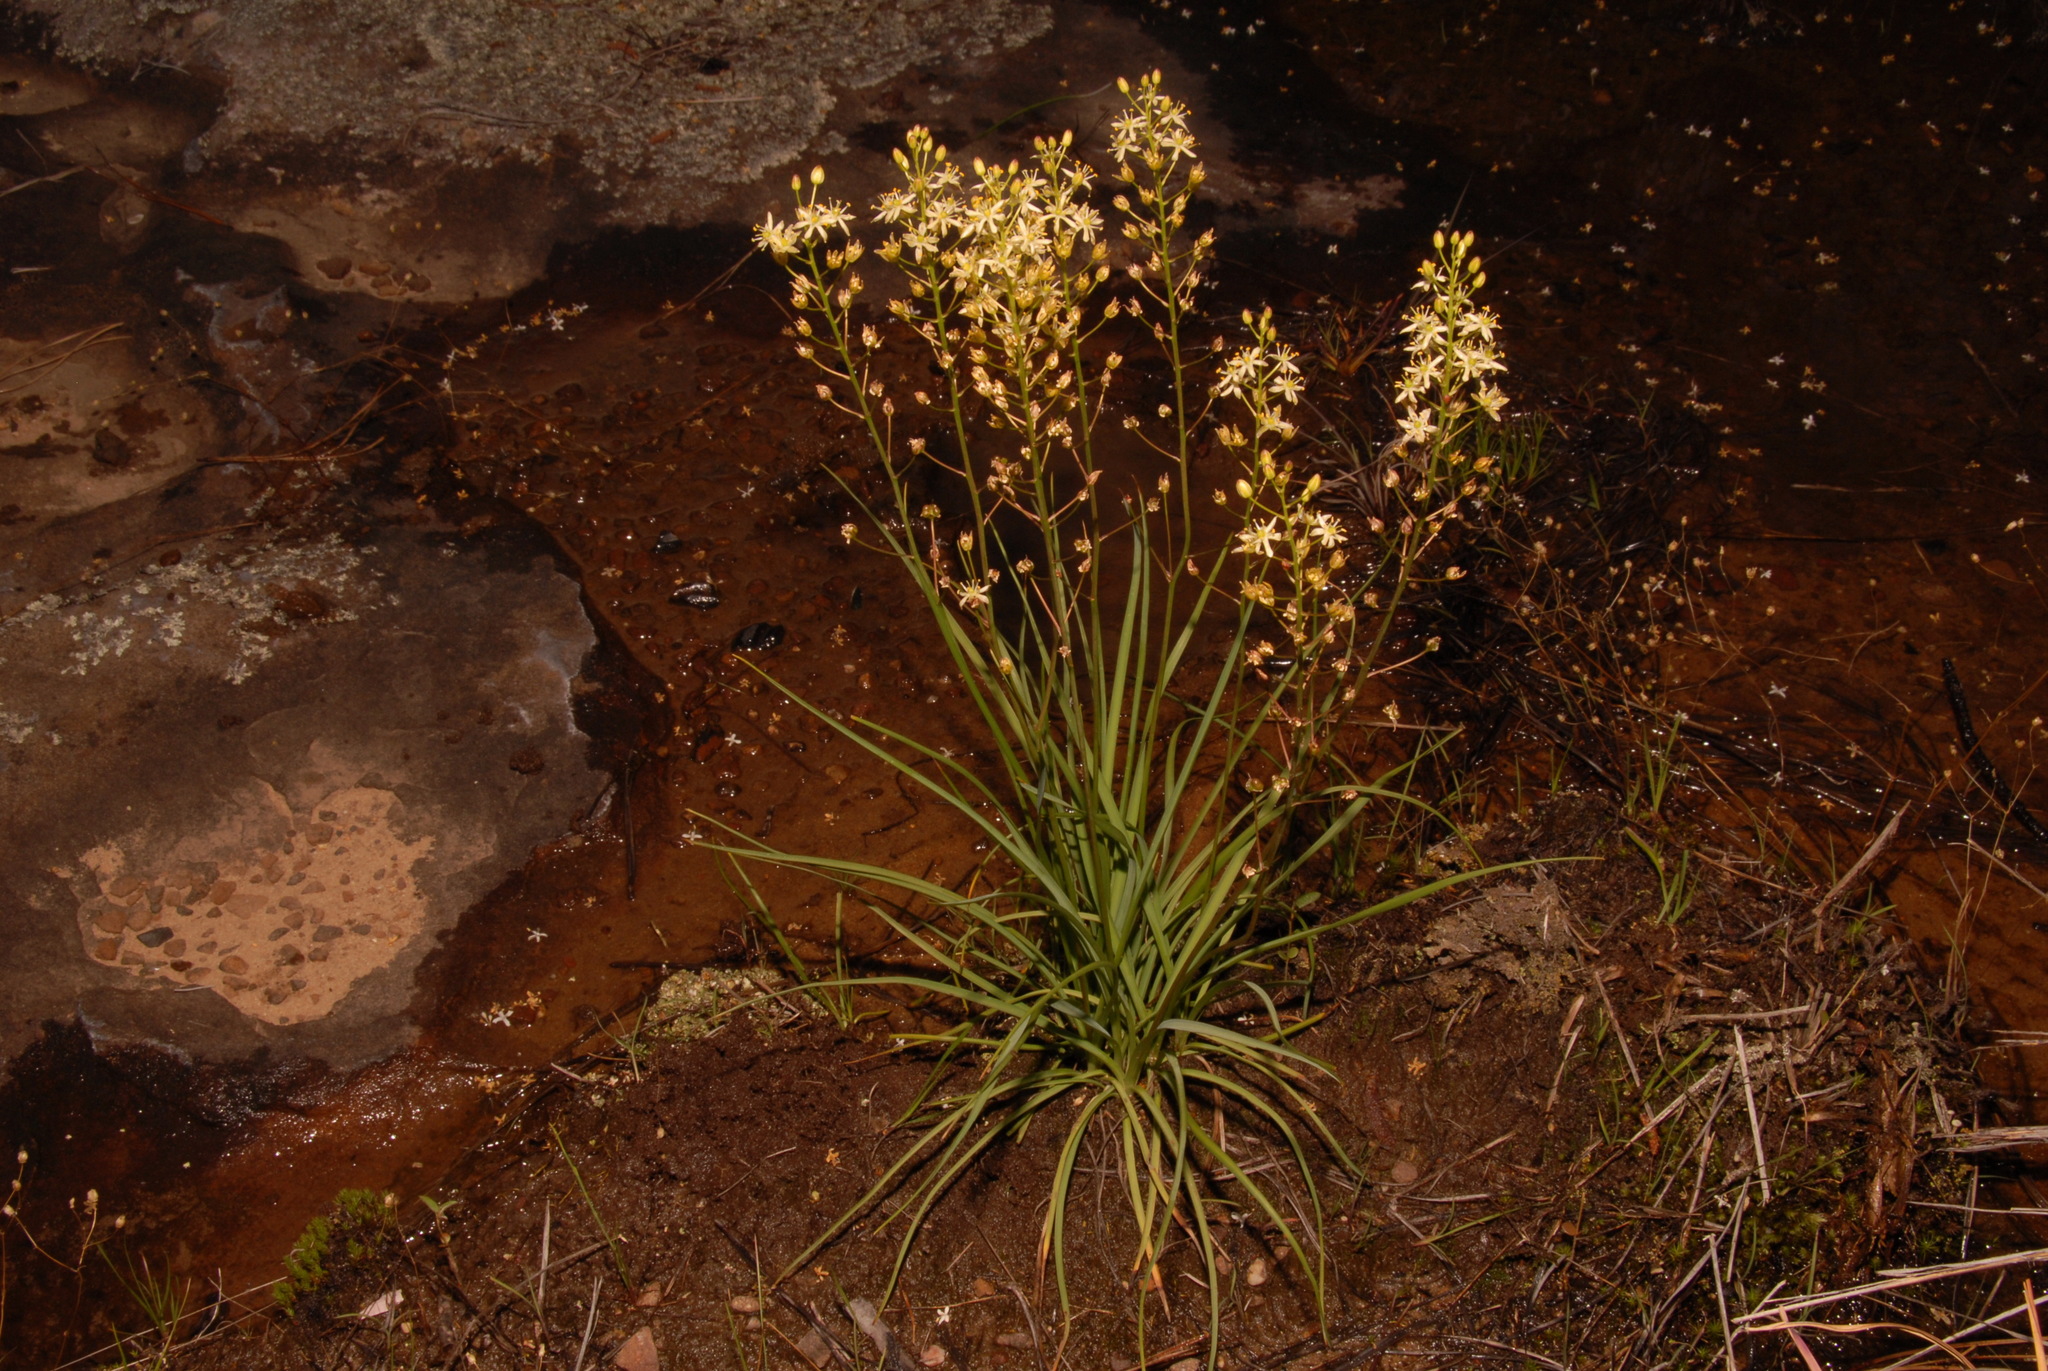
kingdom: Plantae
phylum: Tracheophyta
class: Liliopsida
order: Asparagales
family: Asparagaceae
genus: Schoenolirion
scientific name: Schoenolirion wrightii
